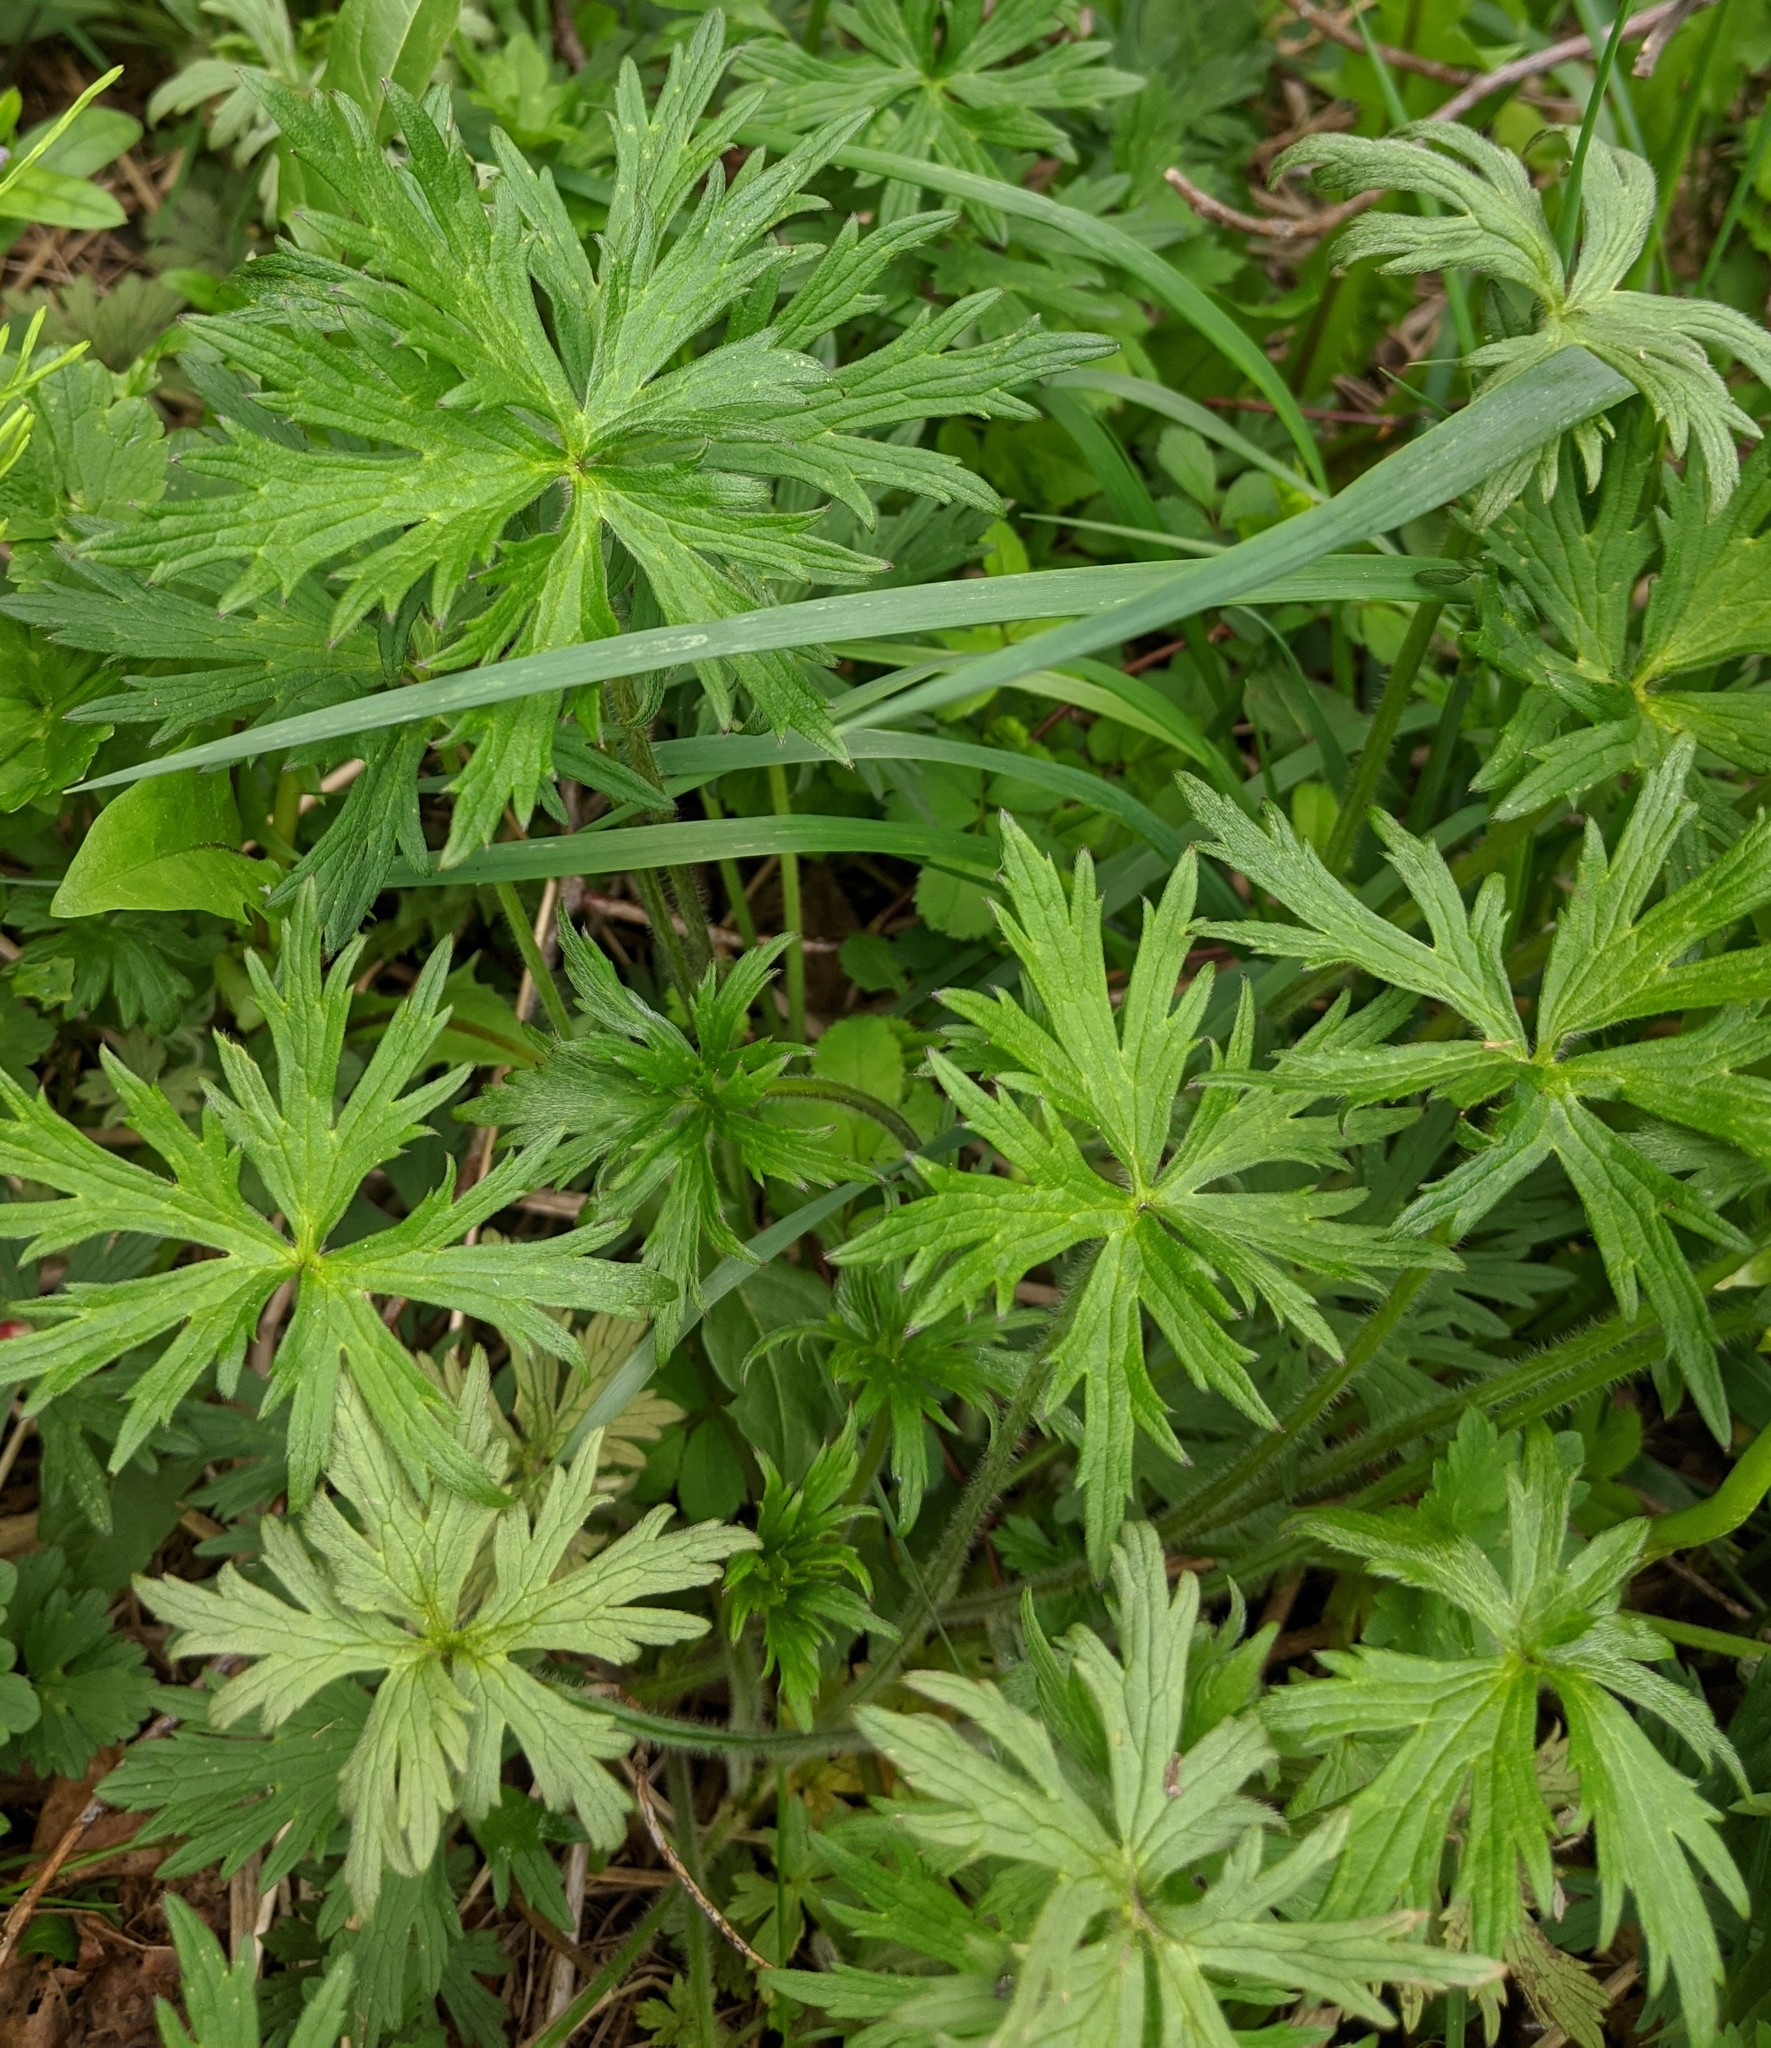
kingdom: Plantae
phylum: Tracheophyta
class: Magnoliopsida
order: Ranunculales
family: Ranunculaceae
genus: Ranunculus
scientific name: Ranunculus acris
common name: Meadow buttercup
